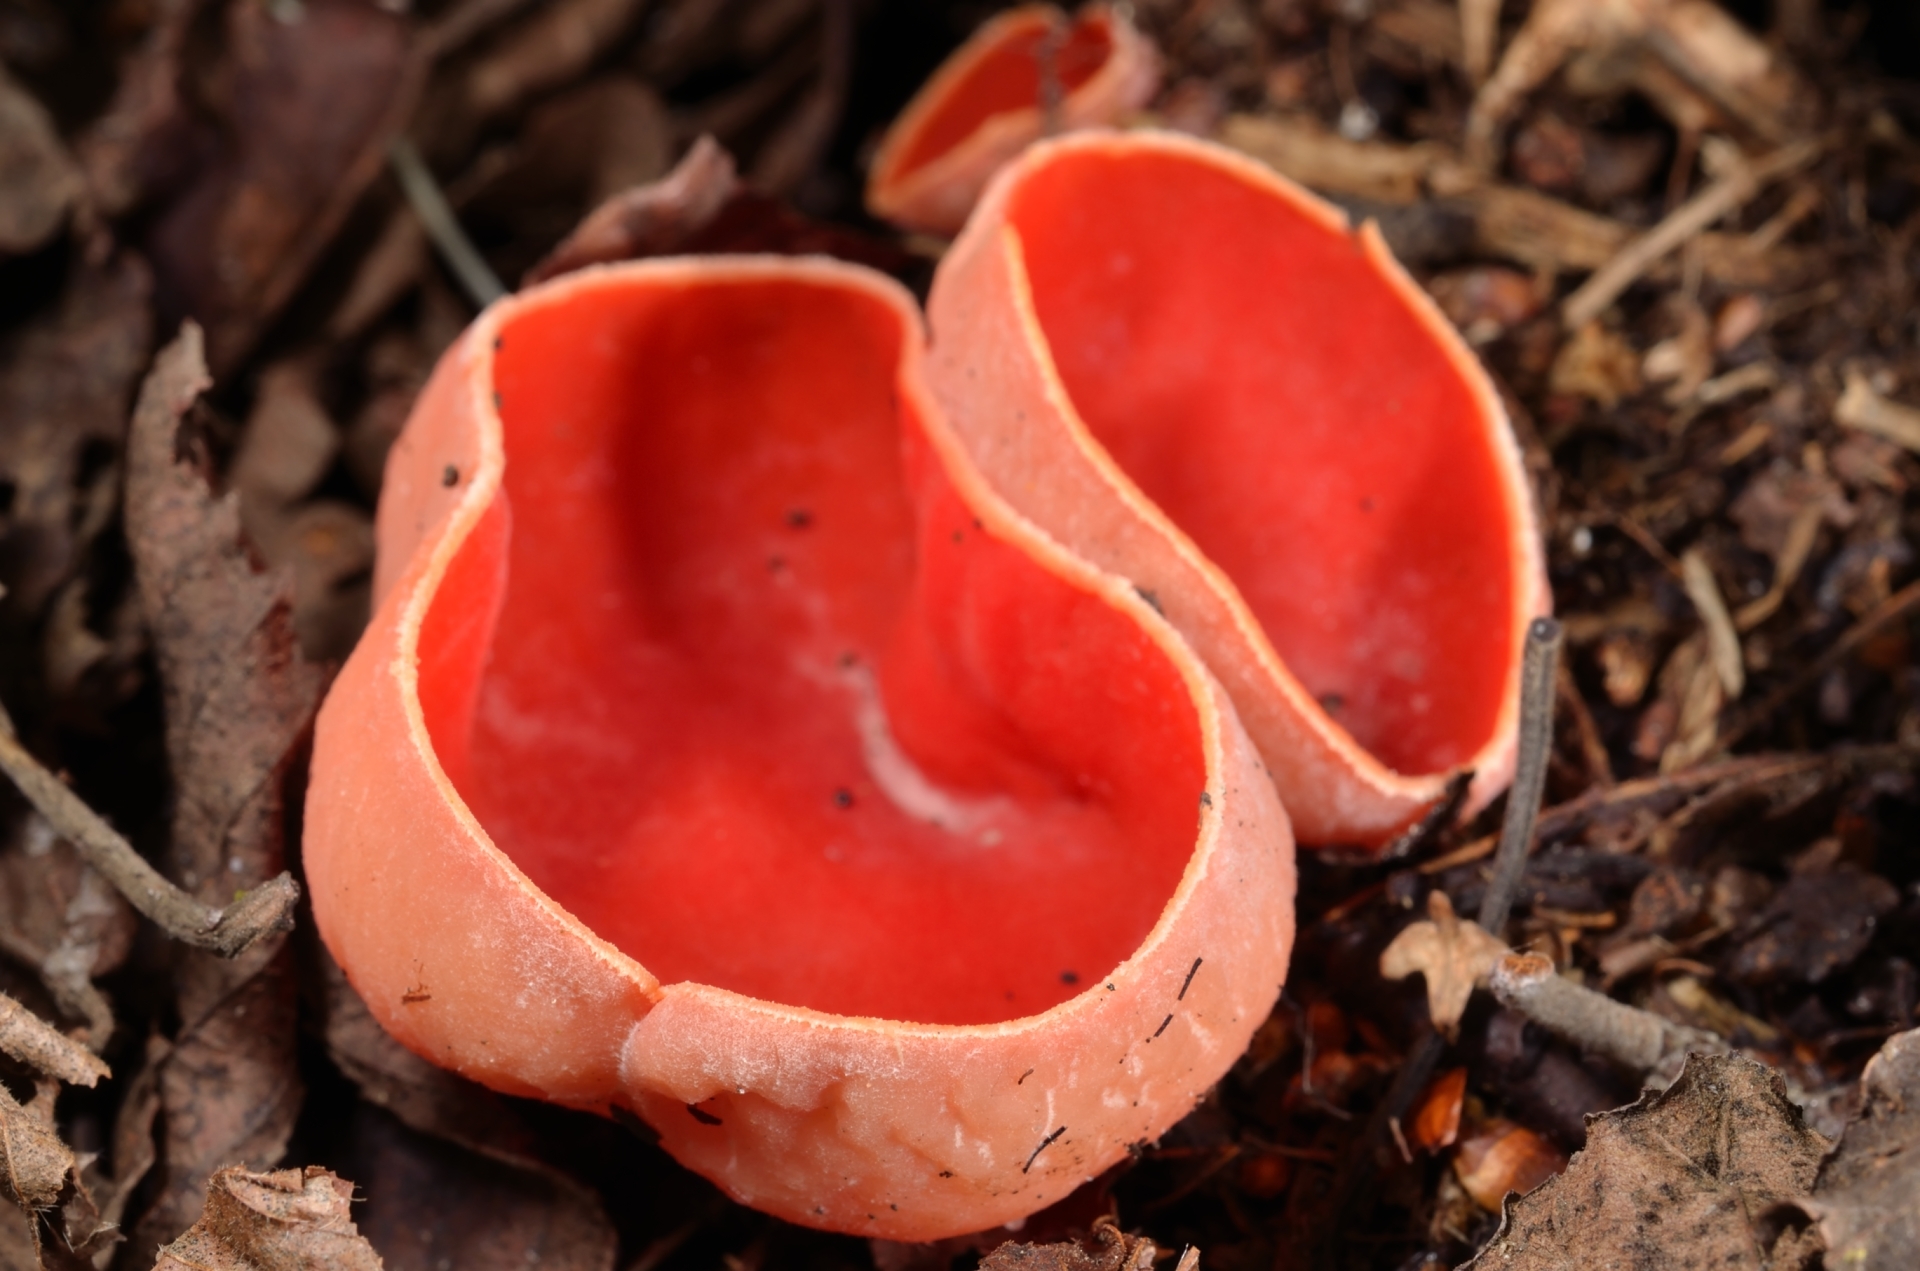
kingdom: Fungi
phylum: Ascomycota
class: Pezizomycetes
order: Pezizales
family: Sarcoscyphaceae
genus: Sarcoscypha
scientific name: Sarcoscypha austriaca
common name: Scarlet elfcup
